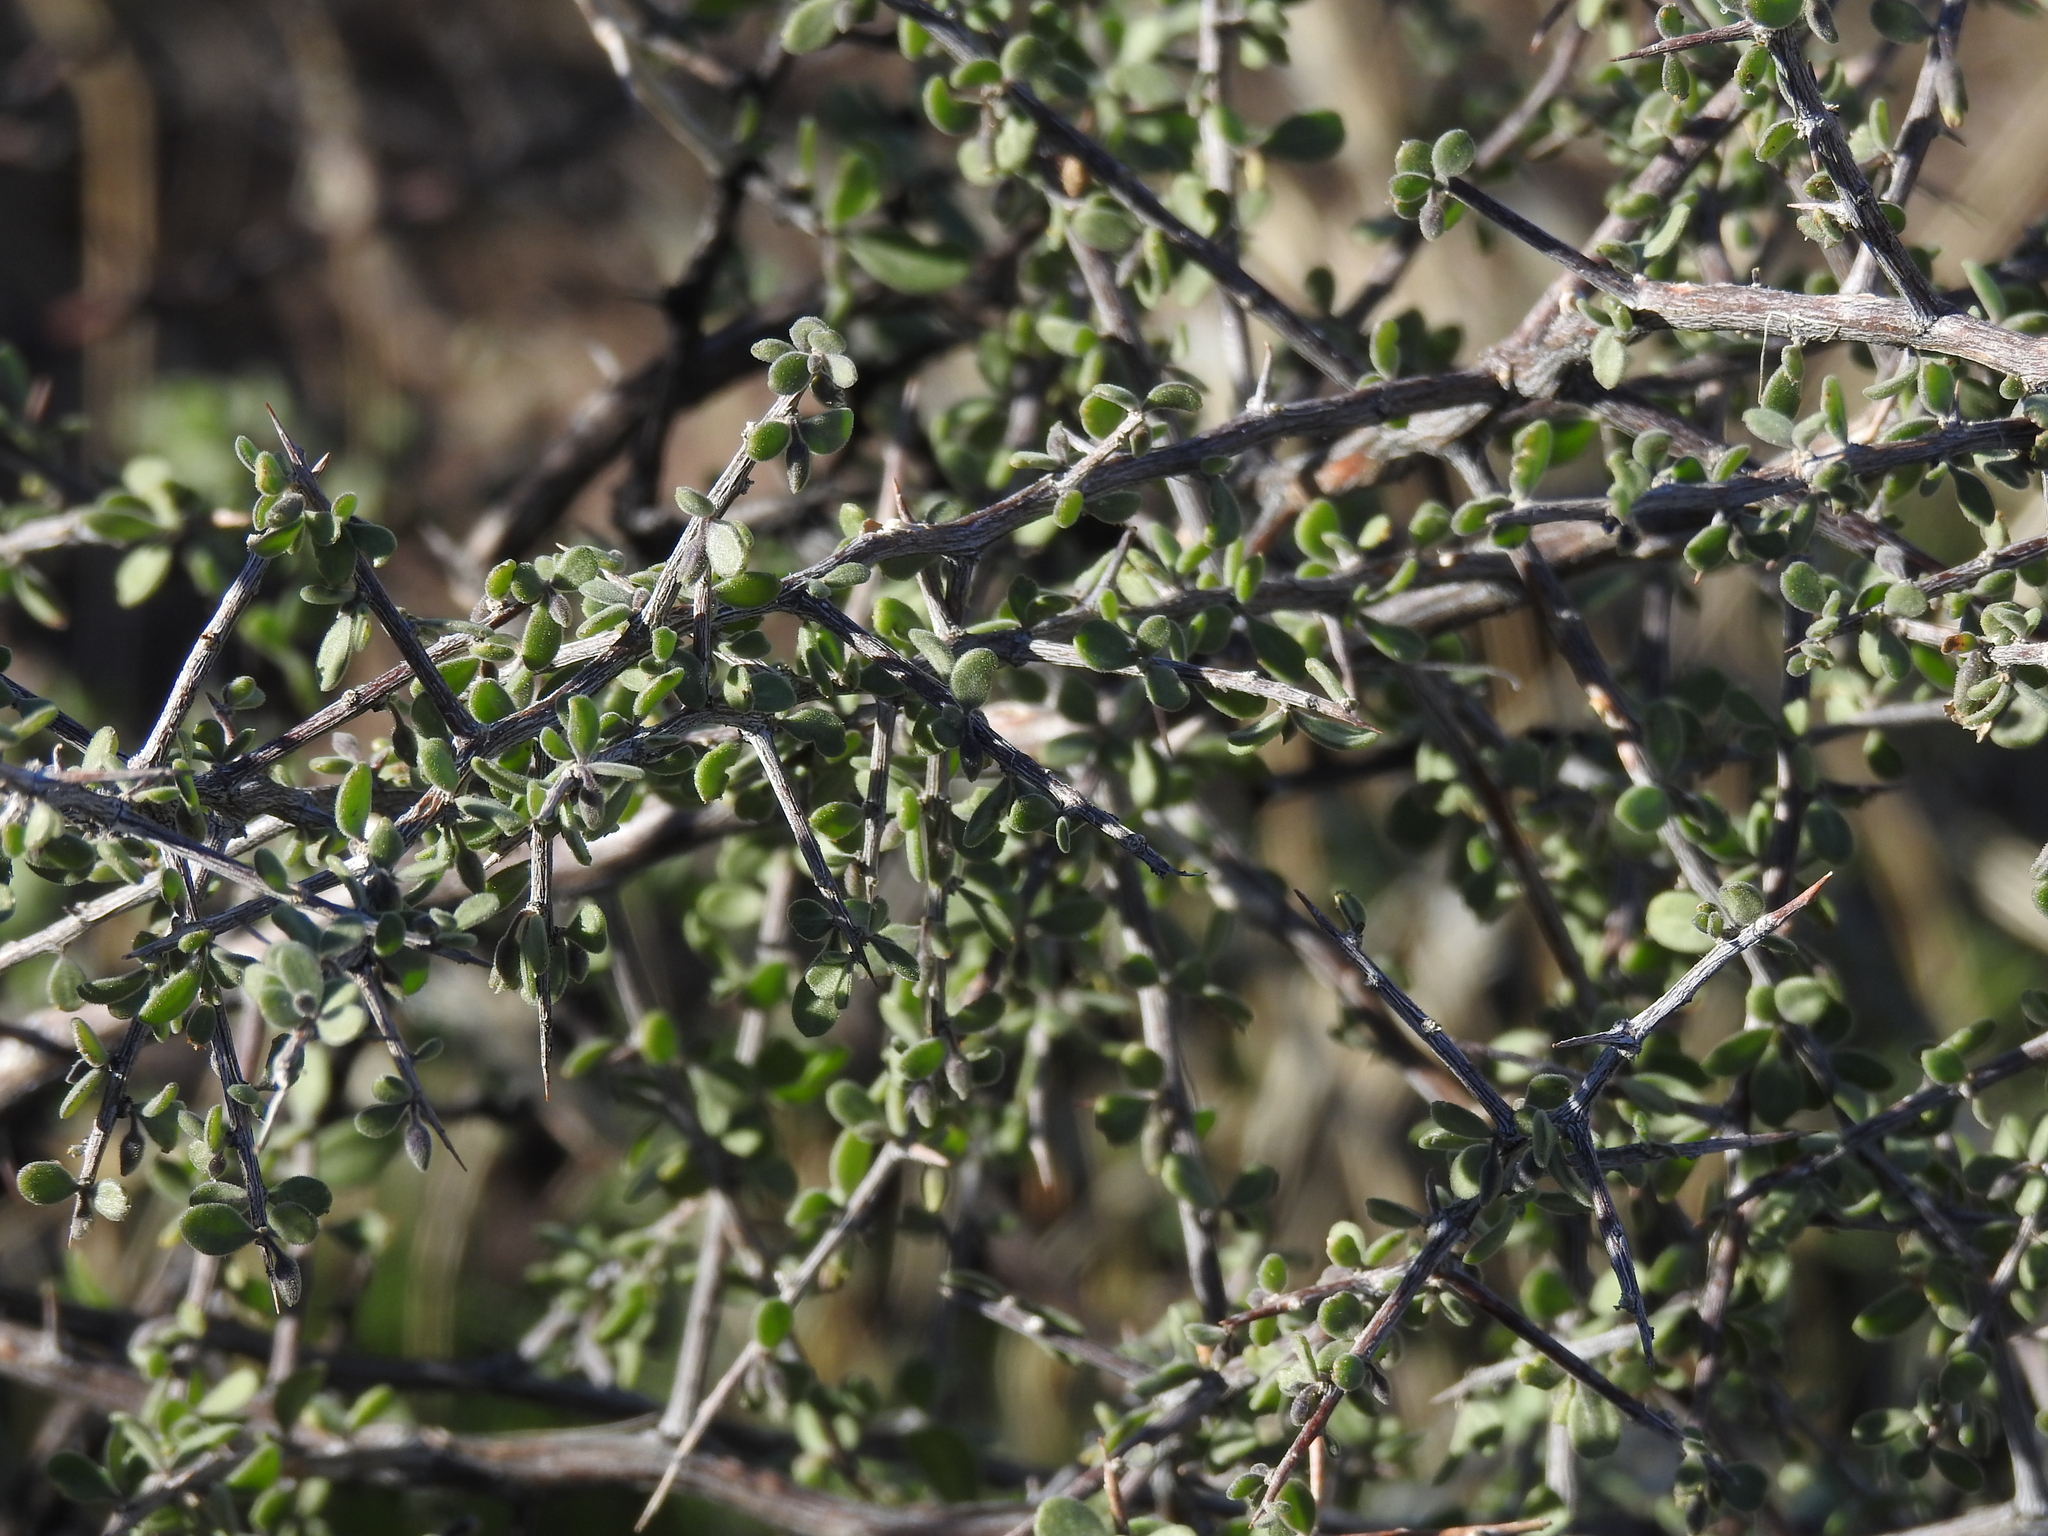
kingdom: Plantae
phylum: Tracheophyta
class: Magnoliopsida
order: Solanales
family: Solanaceae
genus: Lycium
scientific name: Lycium exsertum
